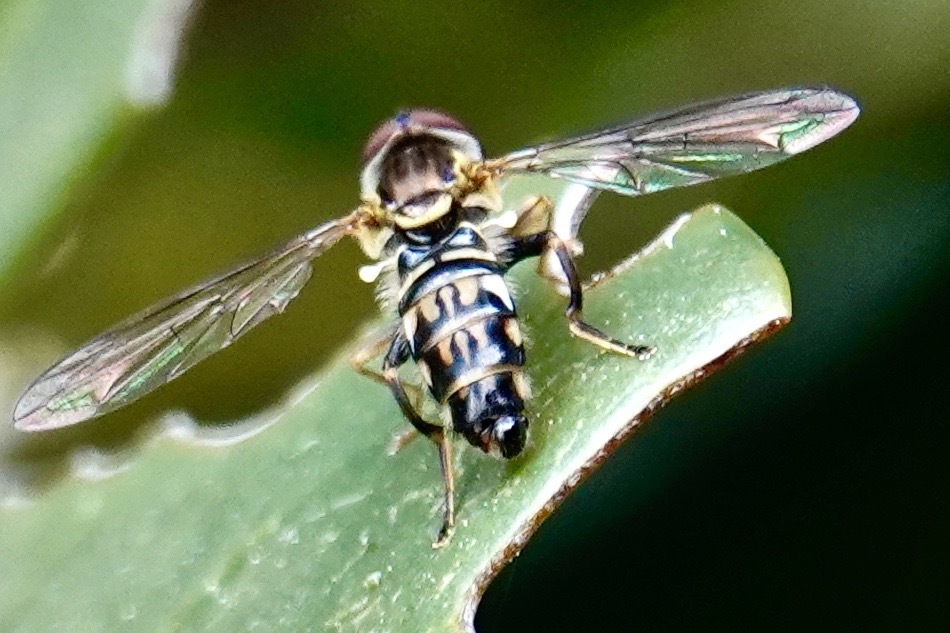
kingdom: Animalia
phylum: Arthropoda
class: Insecta
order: Diptera
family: Syrphidae
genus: Toxomerus
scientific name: Toxomerus geminatus
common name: Eastern calligrapher
